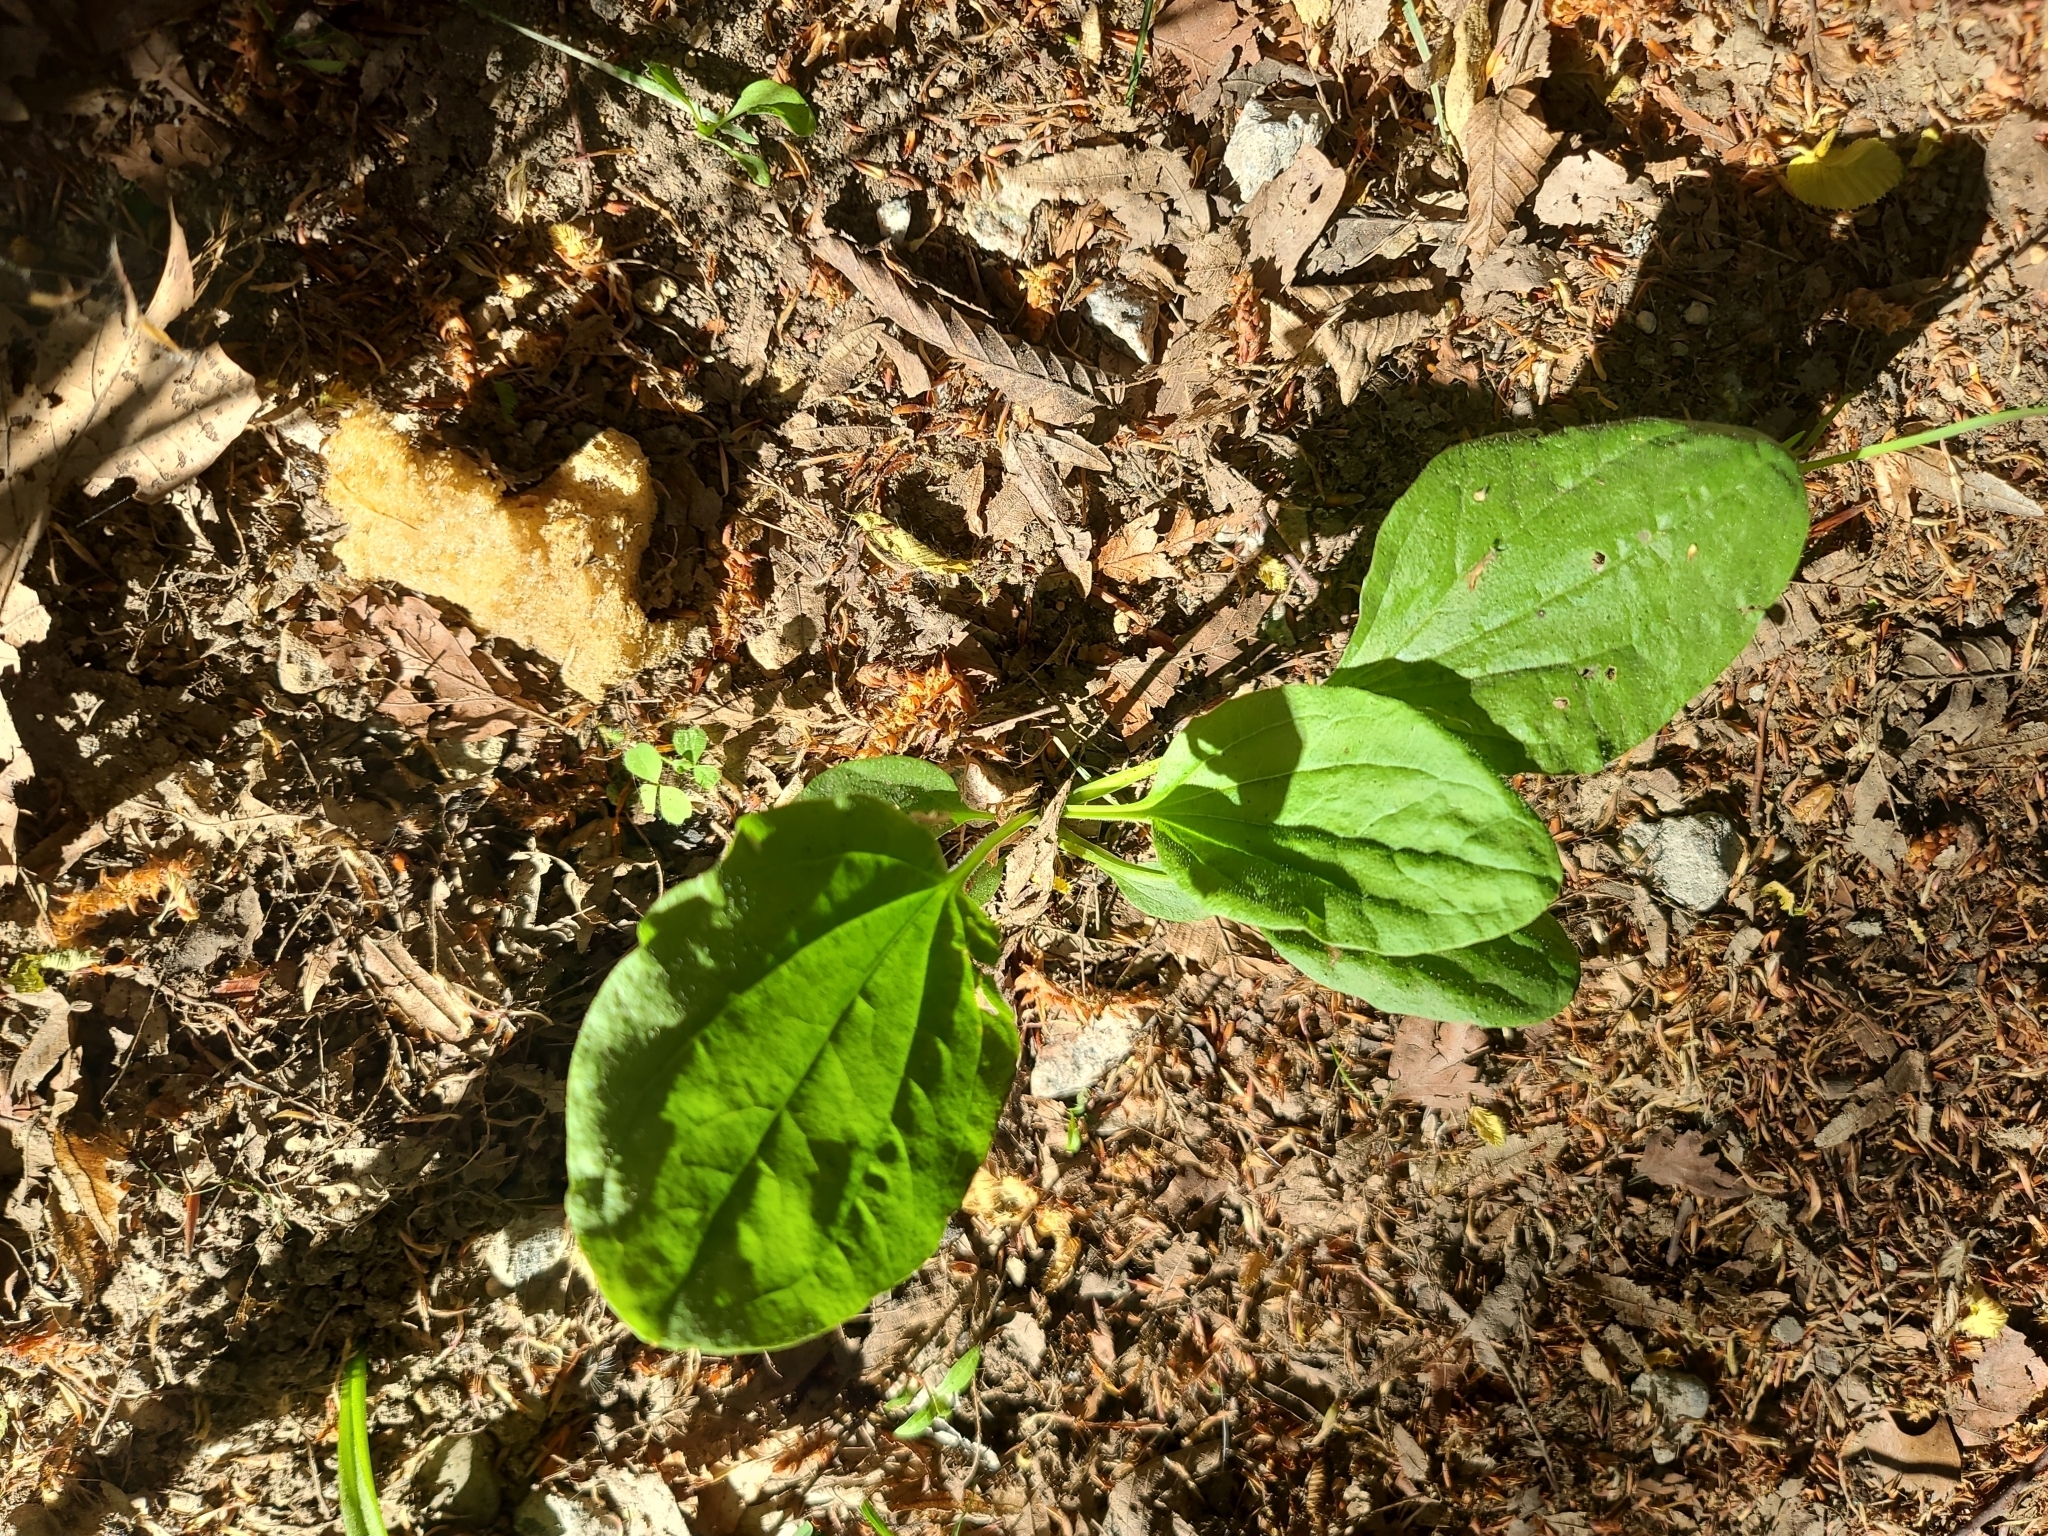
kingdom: Plantae
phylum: Tracheophyta
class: Magnoliopsida
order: Lamiales
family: Plantaginaceae
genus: Plantago
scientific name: Plantago major
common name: Common plantain
